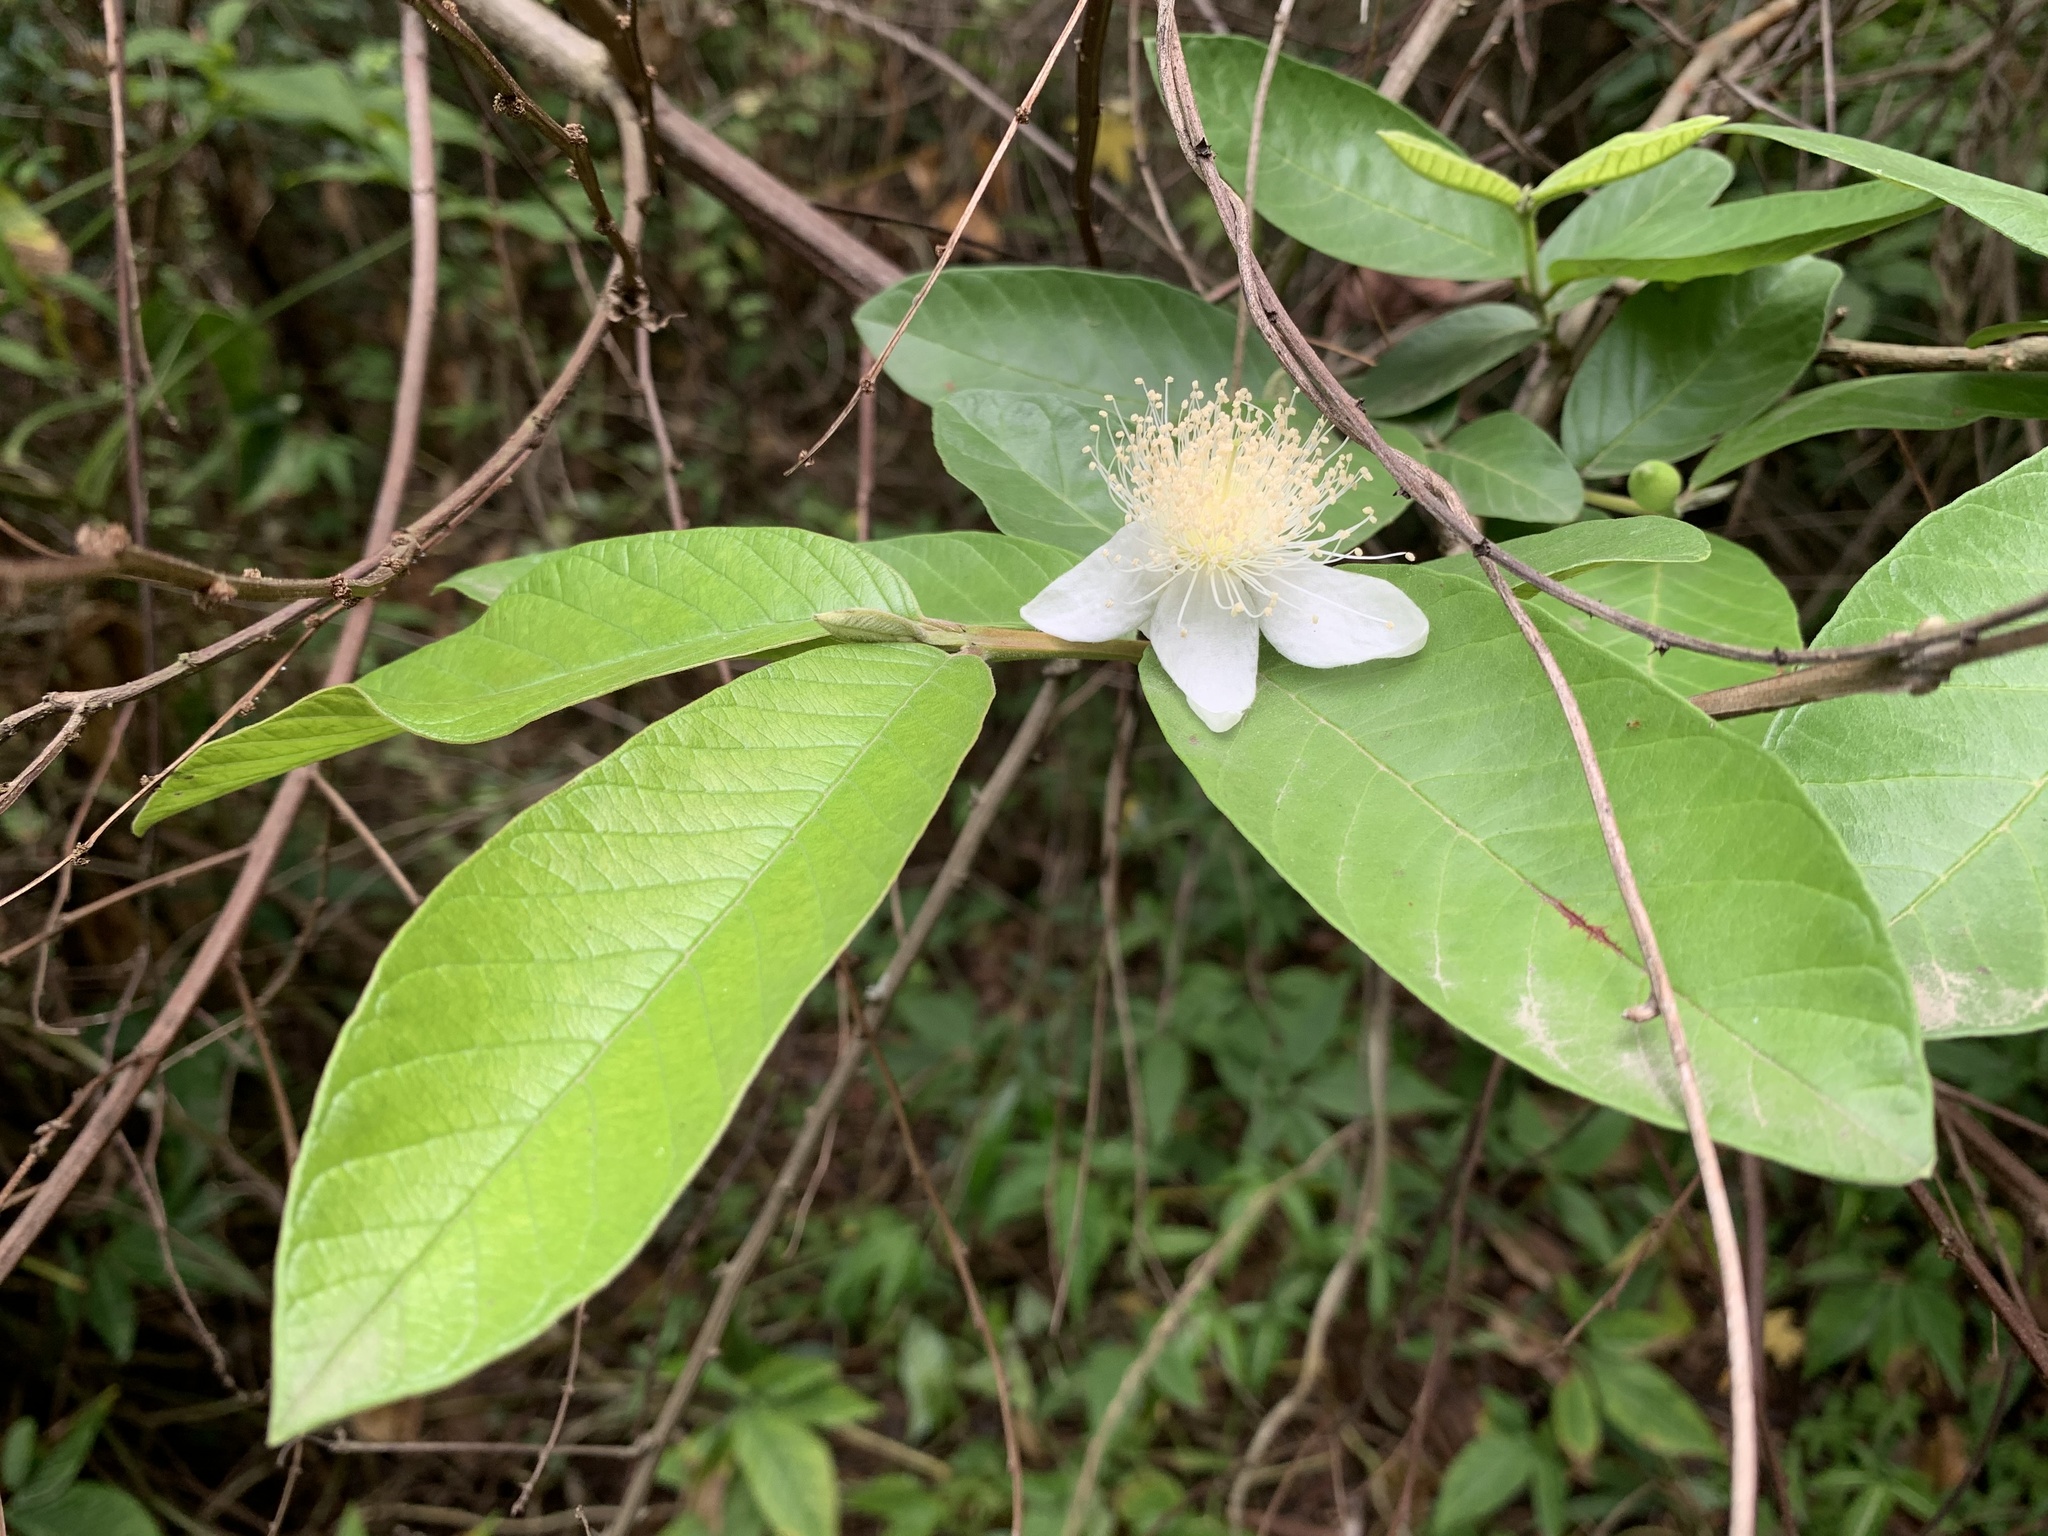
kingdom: Plantae
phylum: Tracheophyta
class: Magnoliopsida
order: Myrtales
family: Myrtaceae
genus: Psidium
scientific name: Psidium guajava
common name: Guava
